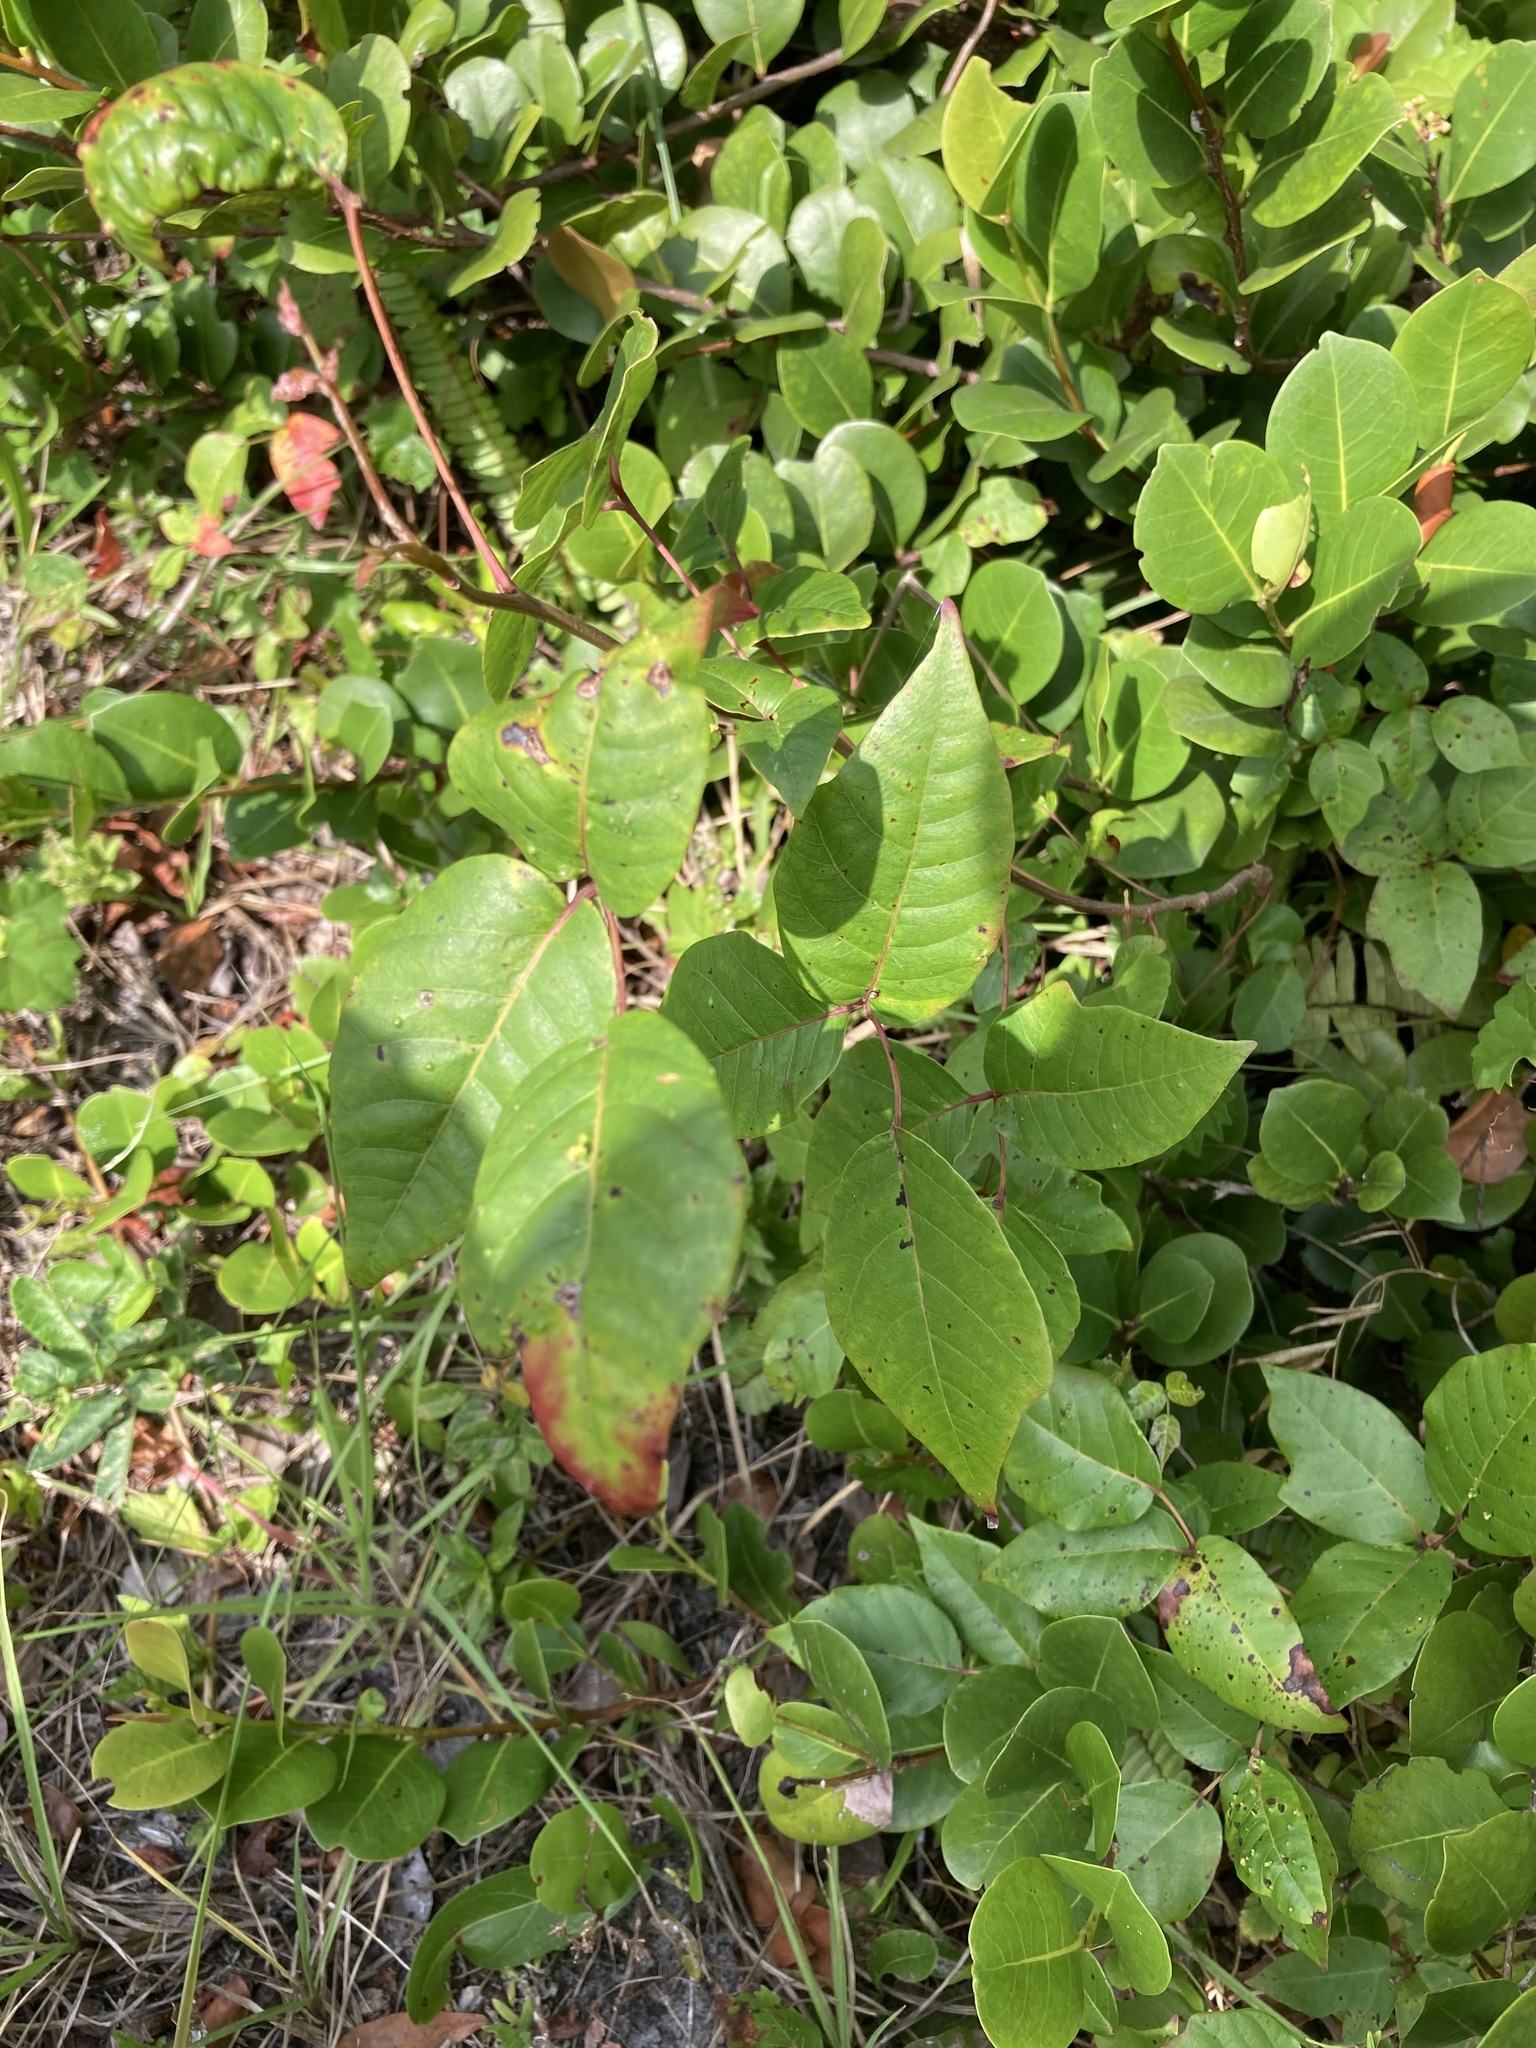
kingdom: Plantae
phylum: Tracheophyta
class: Magnoliopsida
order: Sapindales
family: Anacardiaceae
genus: Toxicodendron
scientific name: Toxicodendron radicans
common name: Poison ivy
